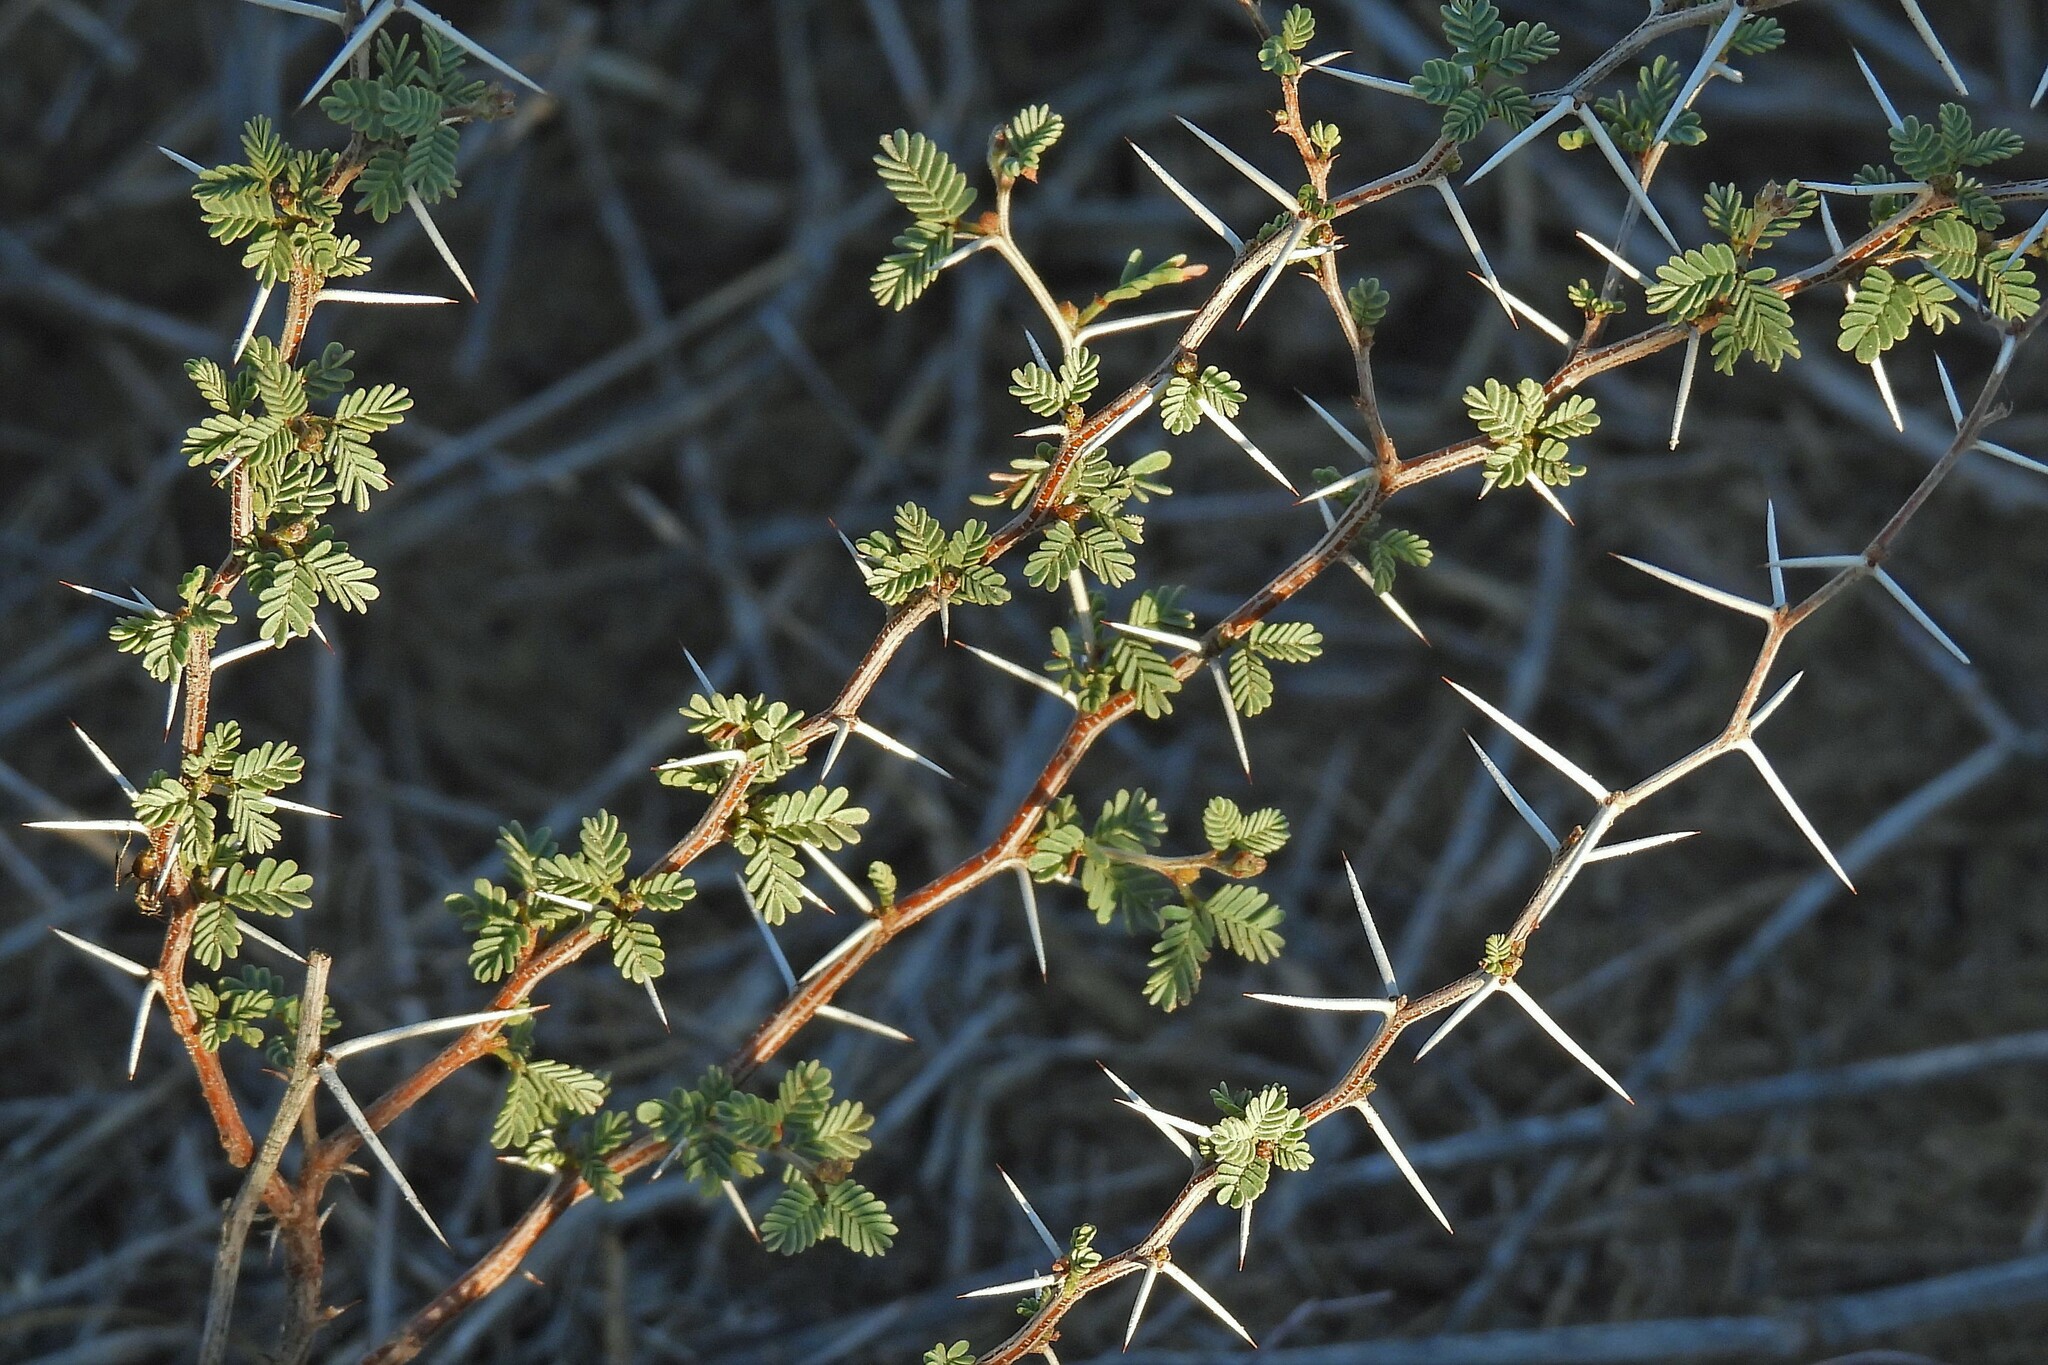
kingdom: Plantae
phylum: Tracheophyta
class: Magnoliopsida
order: Fabales
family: Fabaceae
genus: Prosopis
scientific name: Prosopis reptans
